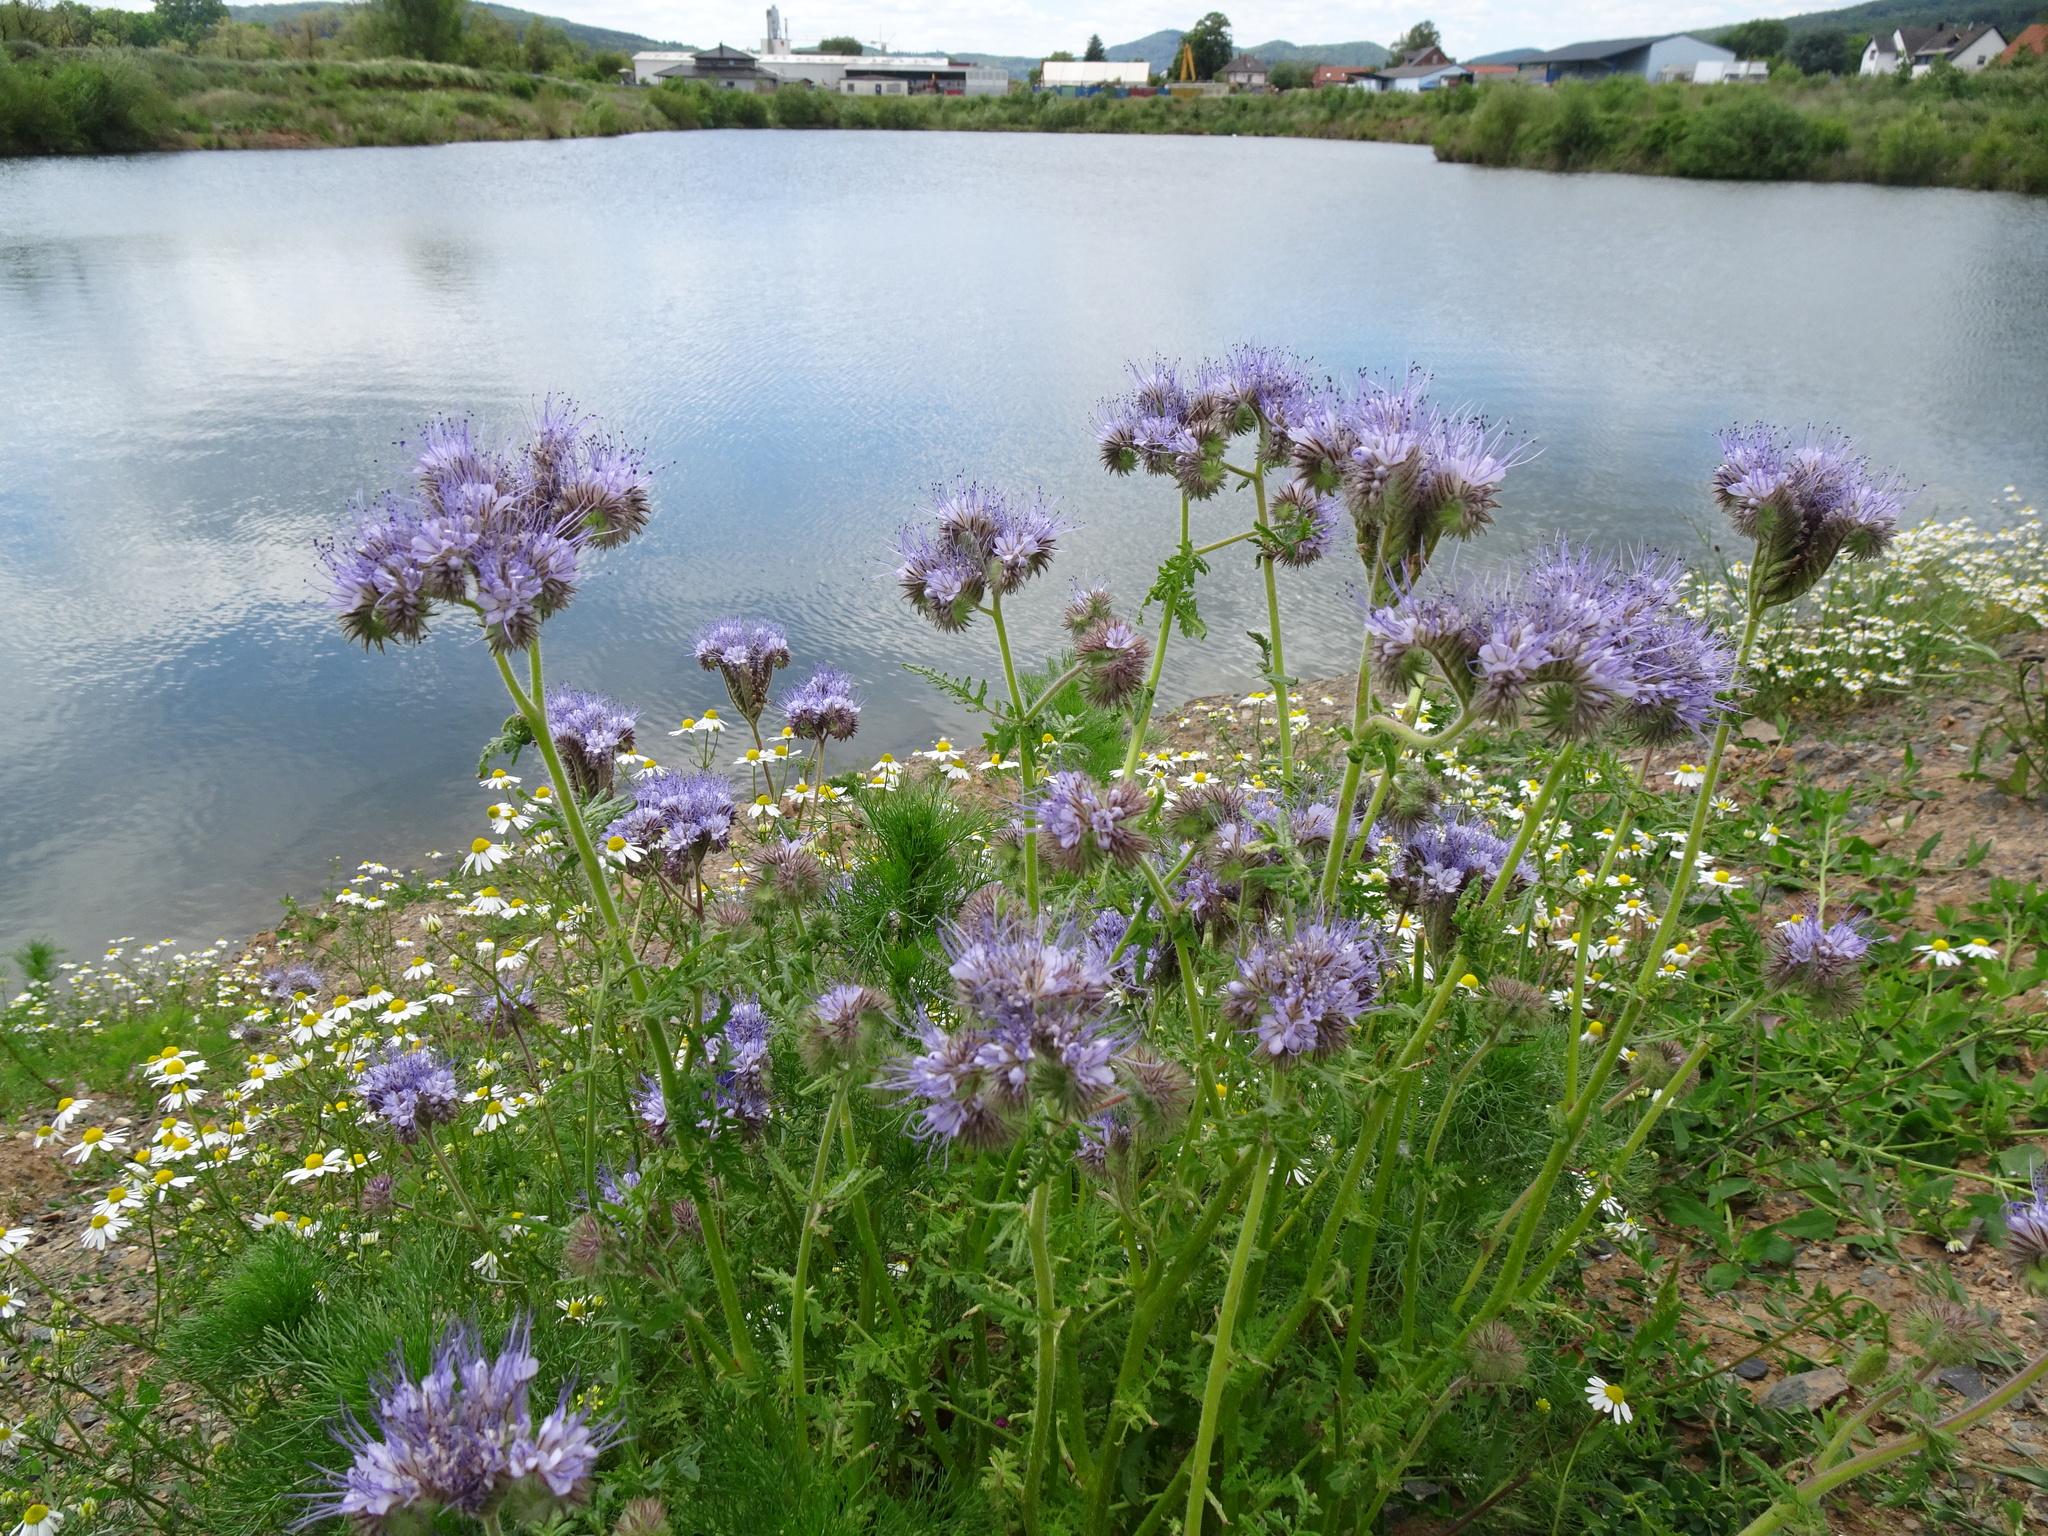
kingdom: Plantae
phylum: Tracheophyta
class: Magnoliopsida
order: Boraginales
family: Hydrophyllaceae
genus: Phacelia
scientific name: Phacelia tanacetifolia
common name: Phacelia
